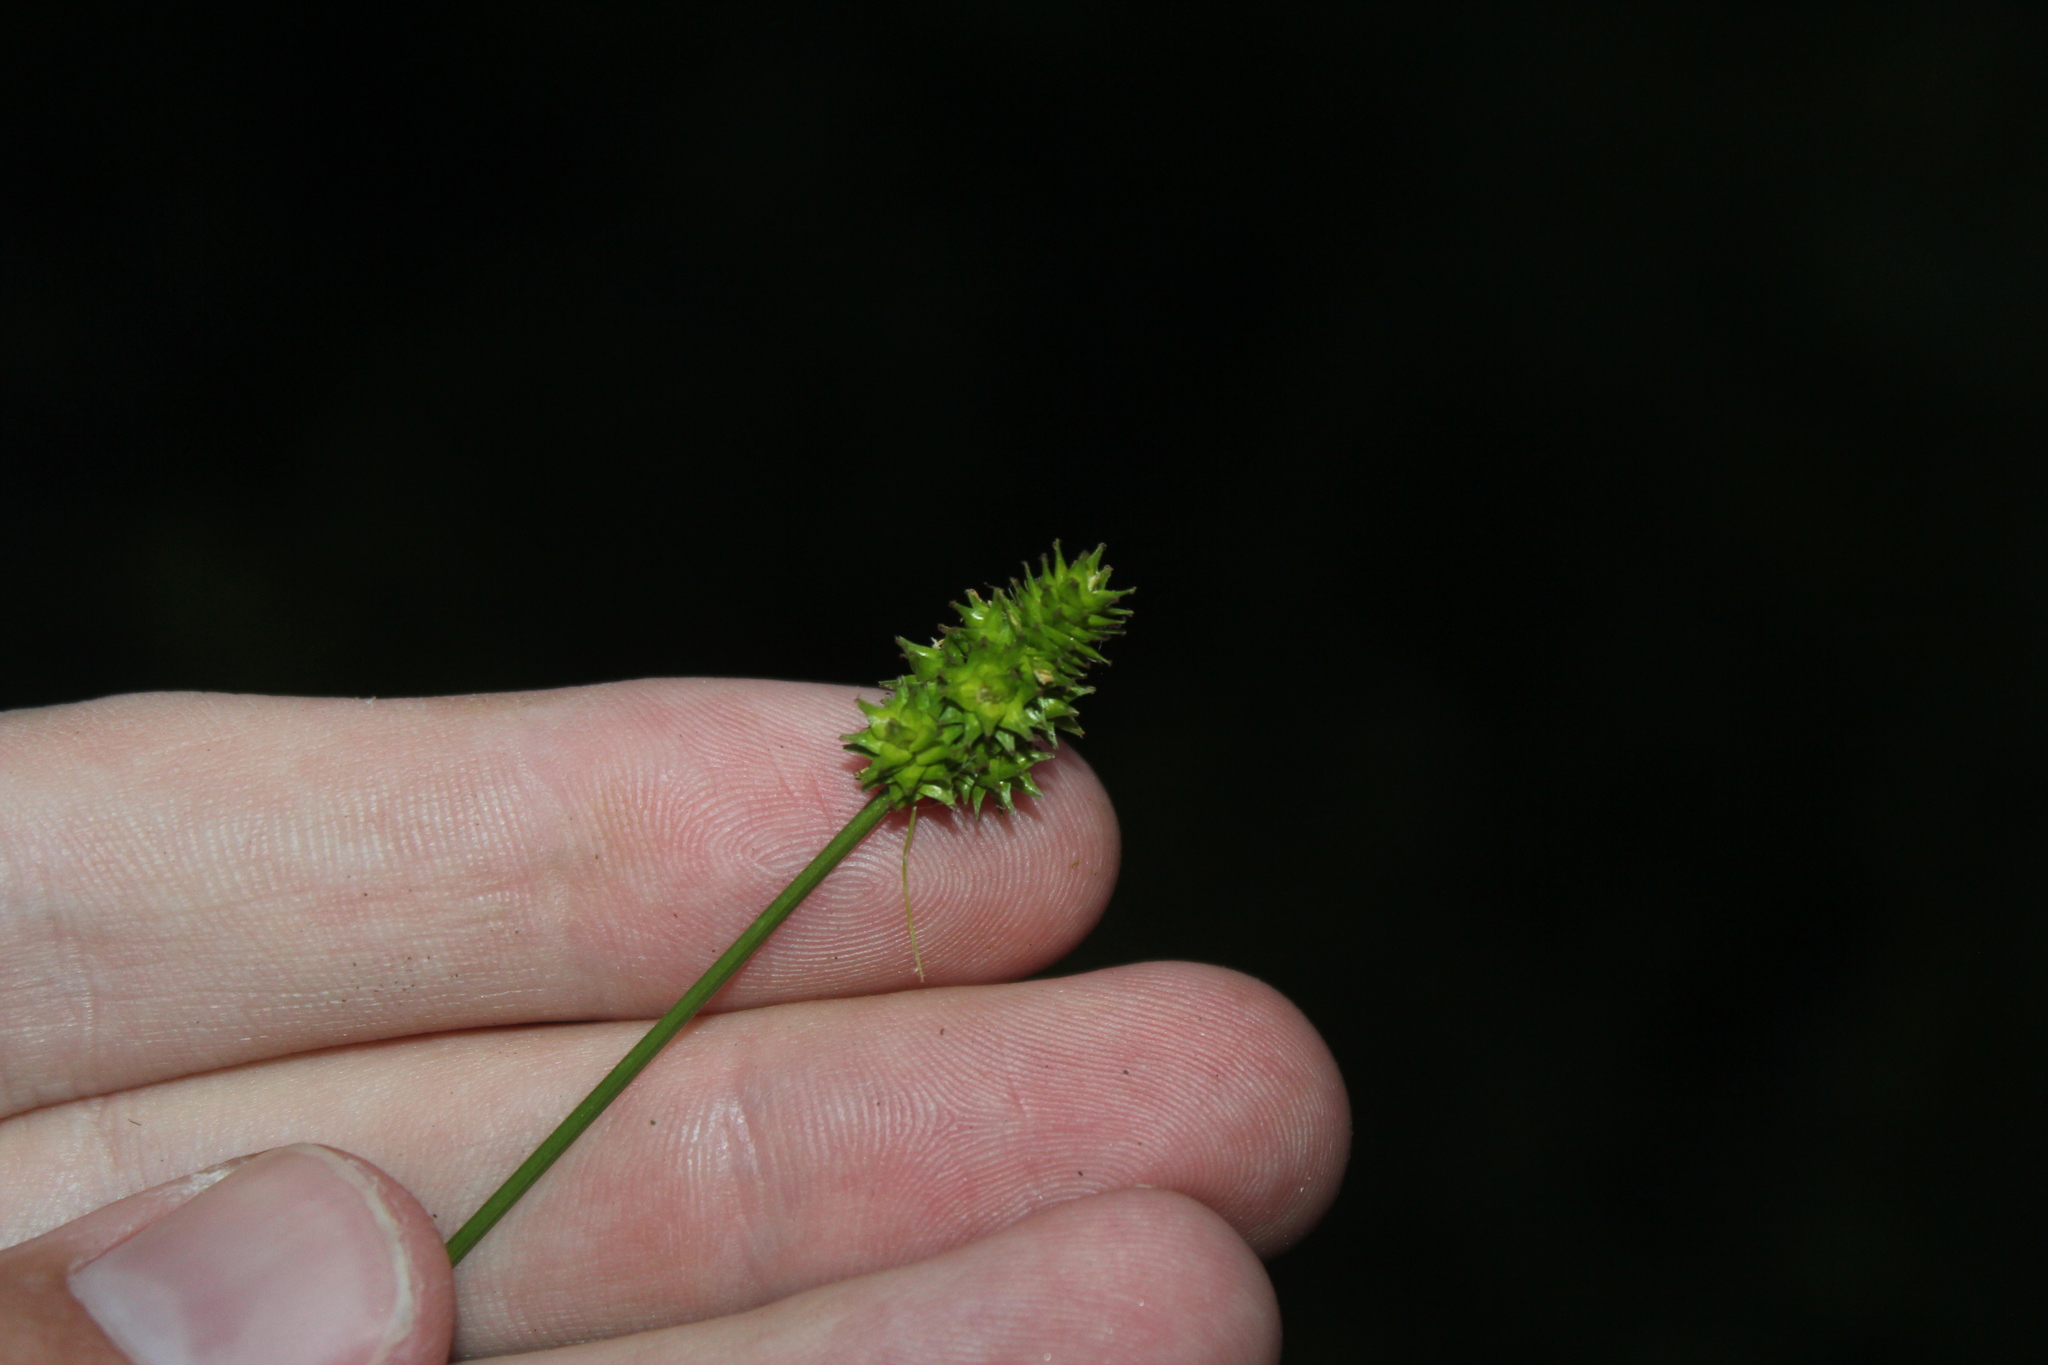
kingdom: Plantae
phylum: Tracheophyta
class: Liliopsida
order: Poales
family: Cyperaceae
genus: Carex
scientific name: Carex cephalophora
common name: Oval-headed sedge
